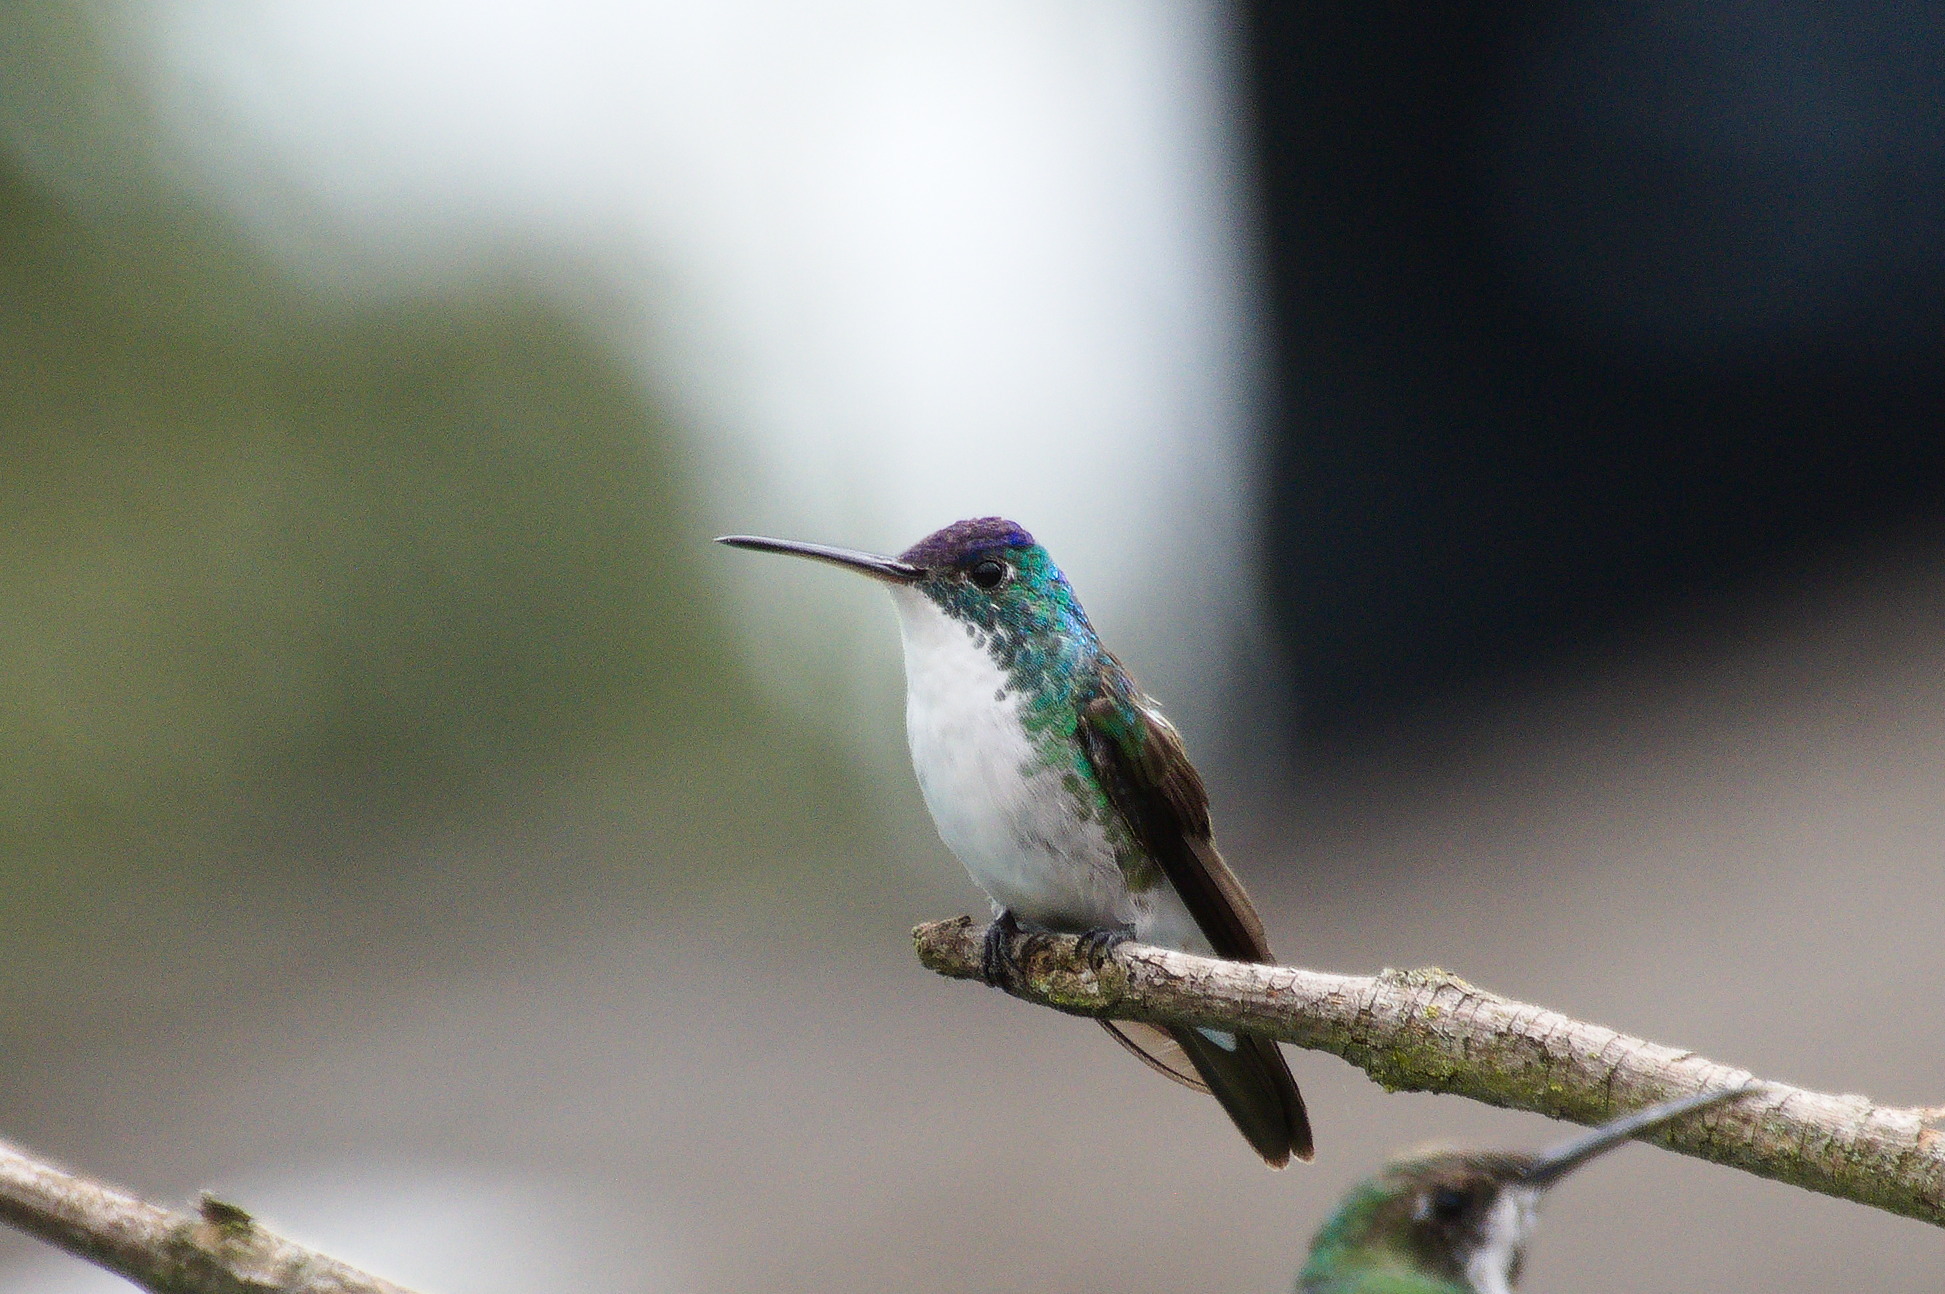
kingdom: Animalia
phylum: Chordata
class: Aves
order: Apodiformes
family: Trochilidae
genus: Uranomitra
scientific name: Uranomitra franciae
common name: Andean emerald
